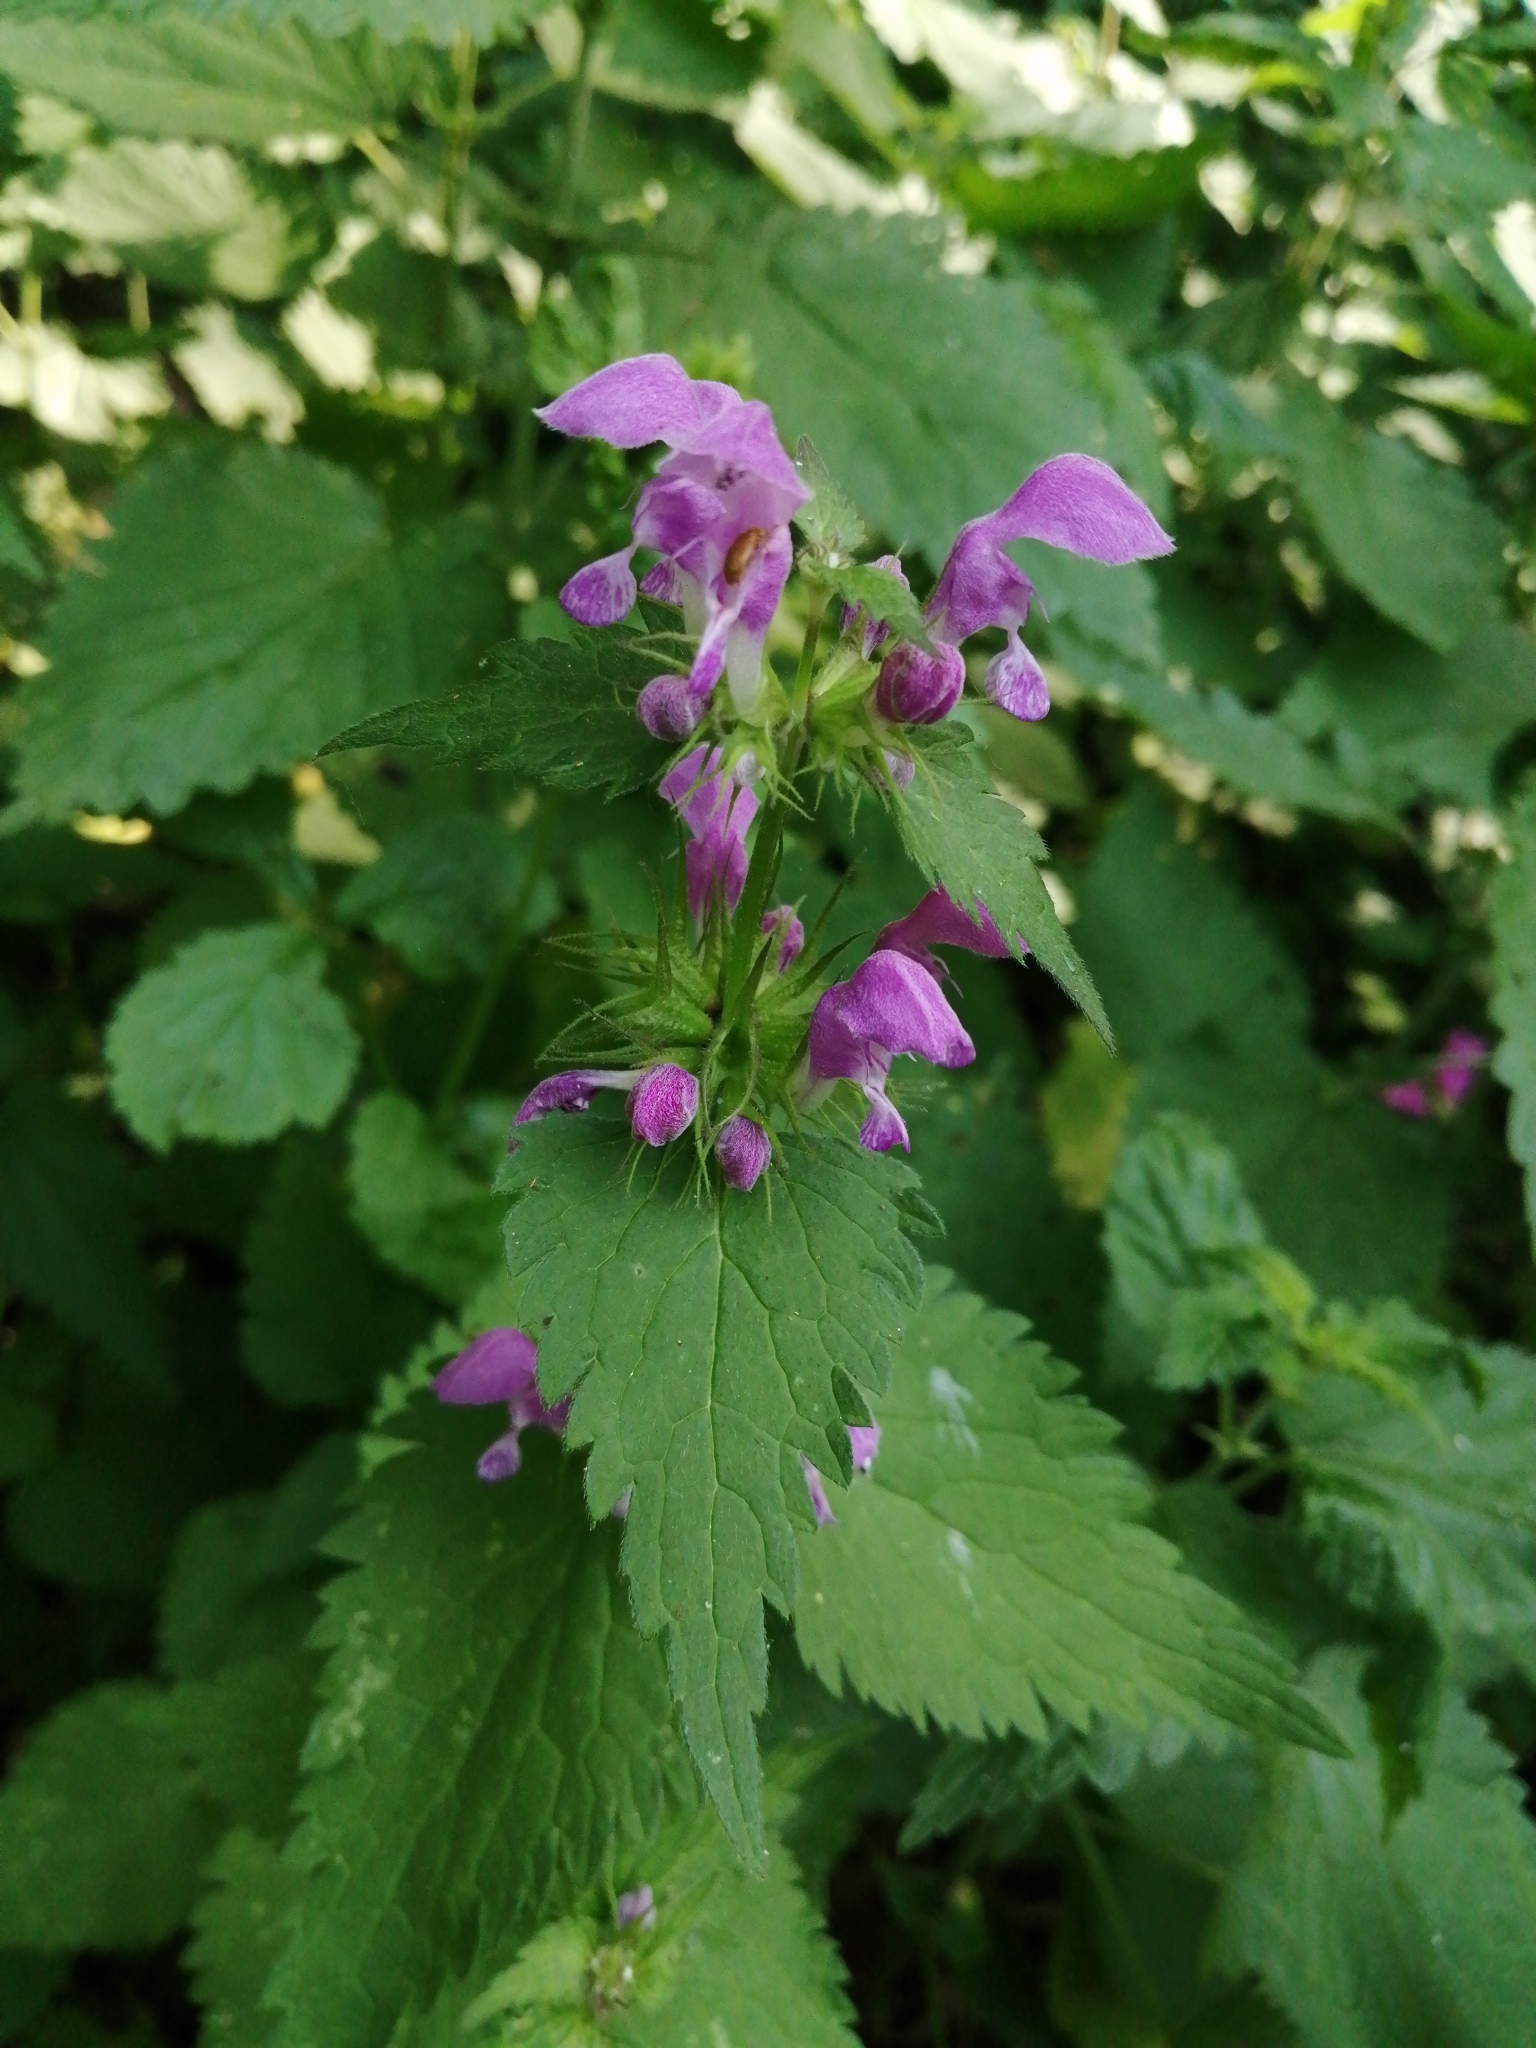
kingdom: Plantae
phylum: Tracheophyta
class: Magnoliopsida
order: Lamiales
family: Lamiaceae
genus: Lamium
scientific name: Lamium maculatum
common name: Spotted dead-nettle
